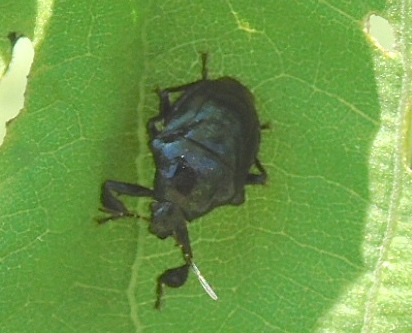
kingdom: Animalia
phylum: Arthropoda
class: Insecta
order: Hemiptera
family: Pentatomidae
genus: Stiretrus
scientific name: Stiretrus anchorago
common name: Anchor stink bug
